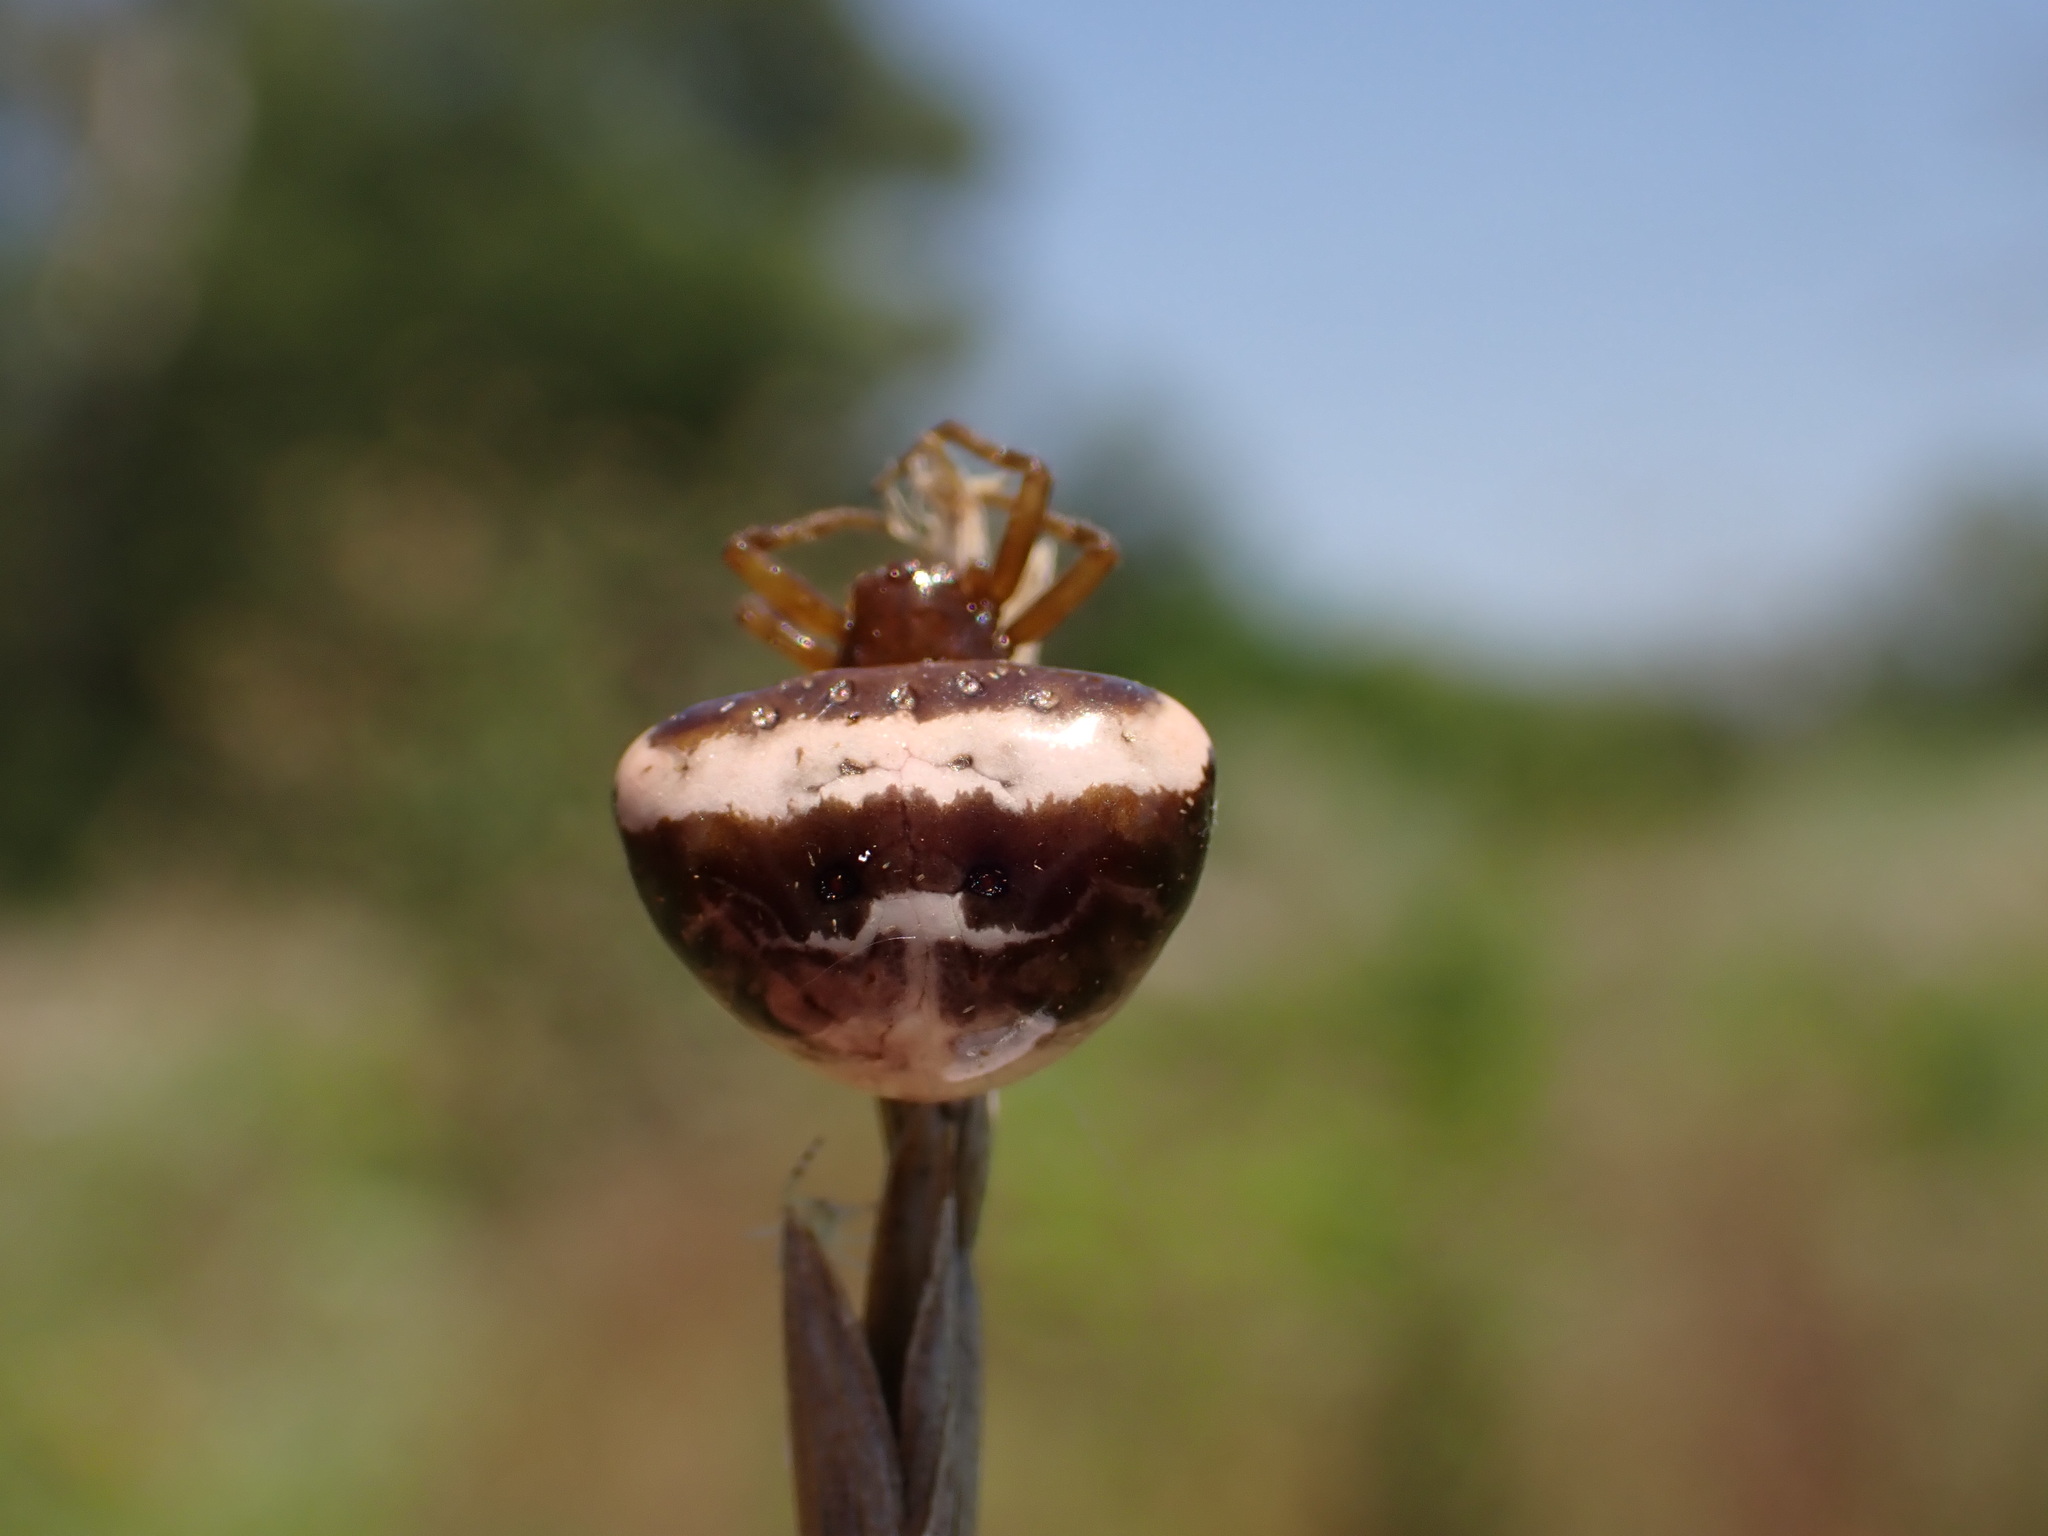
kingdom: Animalia
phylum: Arthropoda
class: Arachnida
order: Araneae
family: Araneidae
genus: Cyrtarachne
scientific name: Cyrtarachne ixoides
